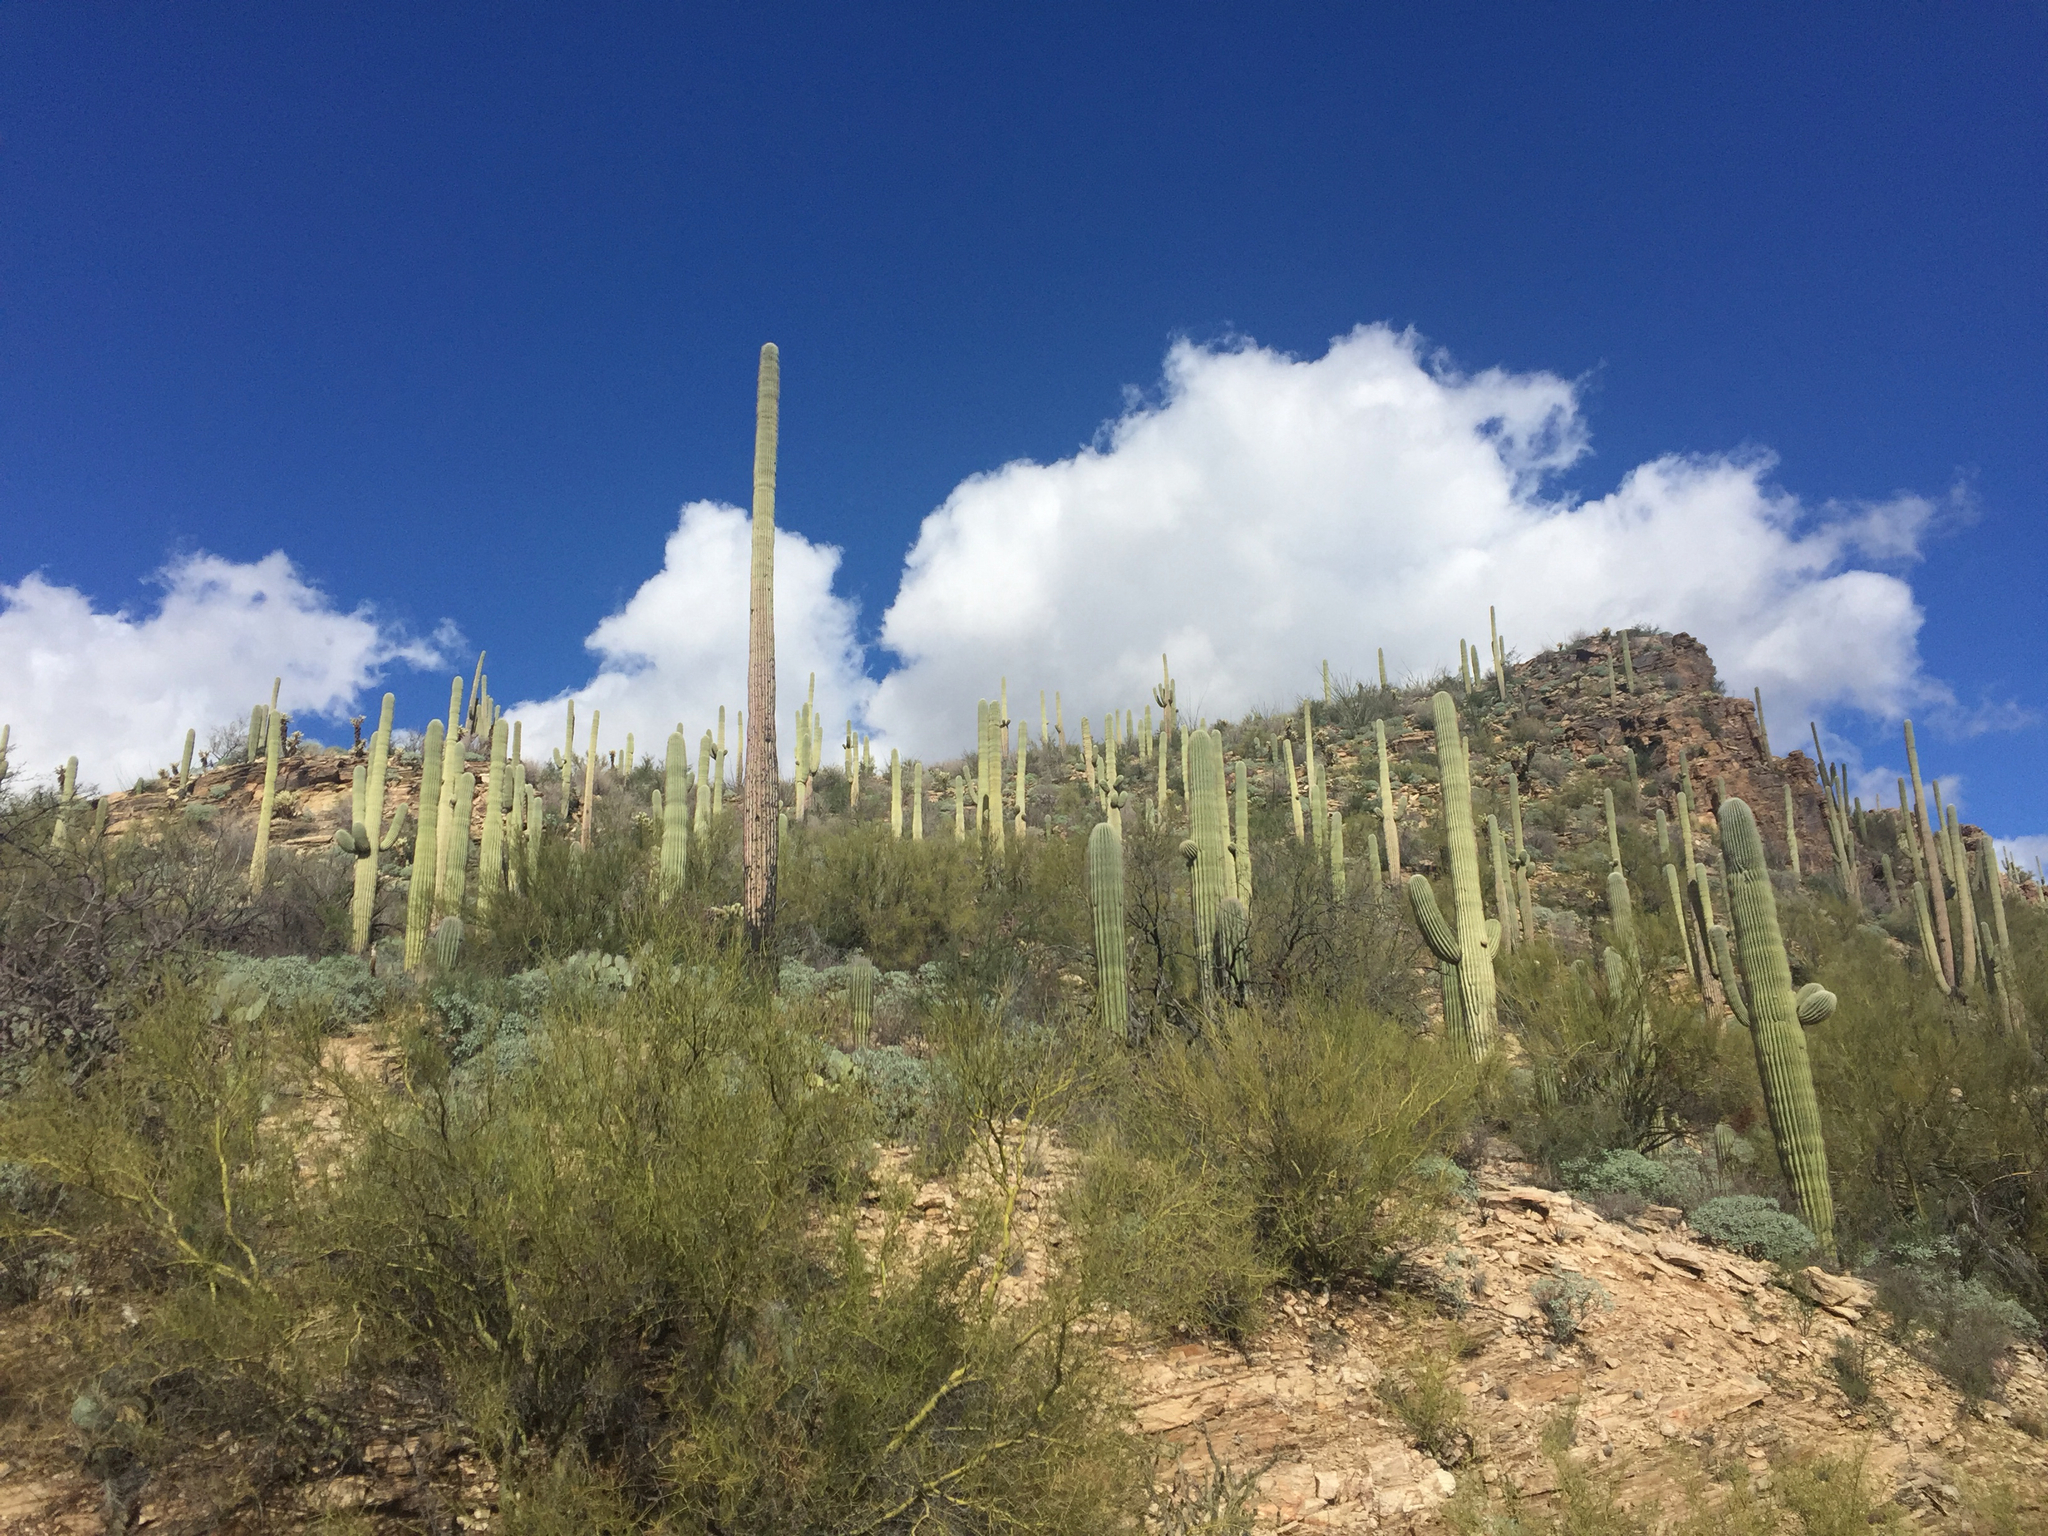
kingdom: Plantae
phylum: Tracheophyta
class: Magnoliopsida
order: Caryophyllales
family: Cactaceae
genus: Carnegiea
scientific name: Carnegiea gigantea
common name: Saguaro
